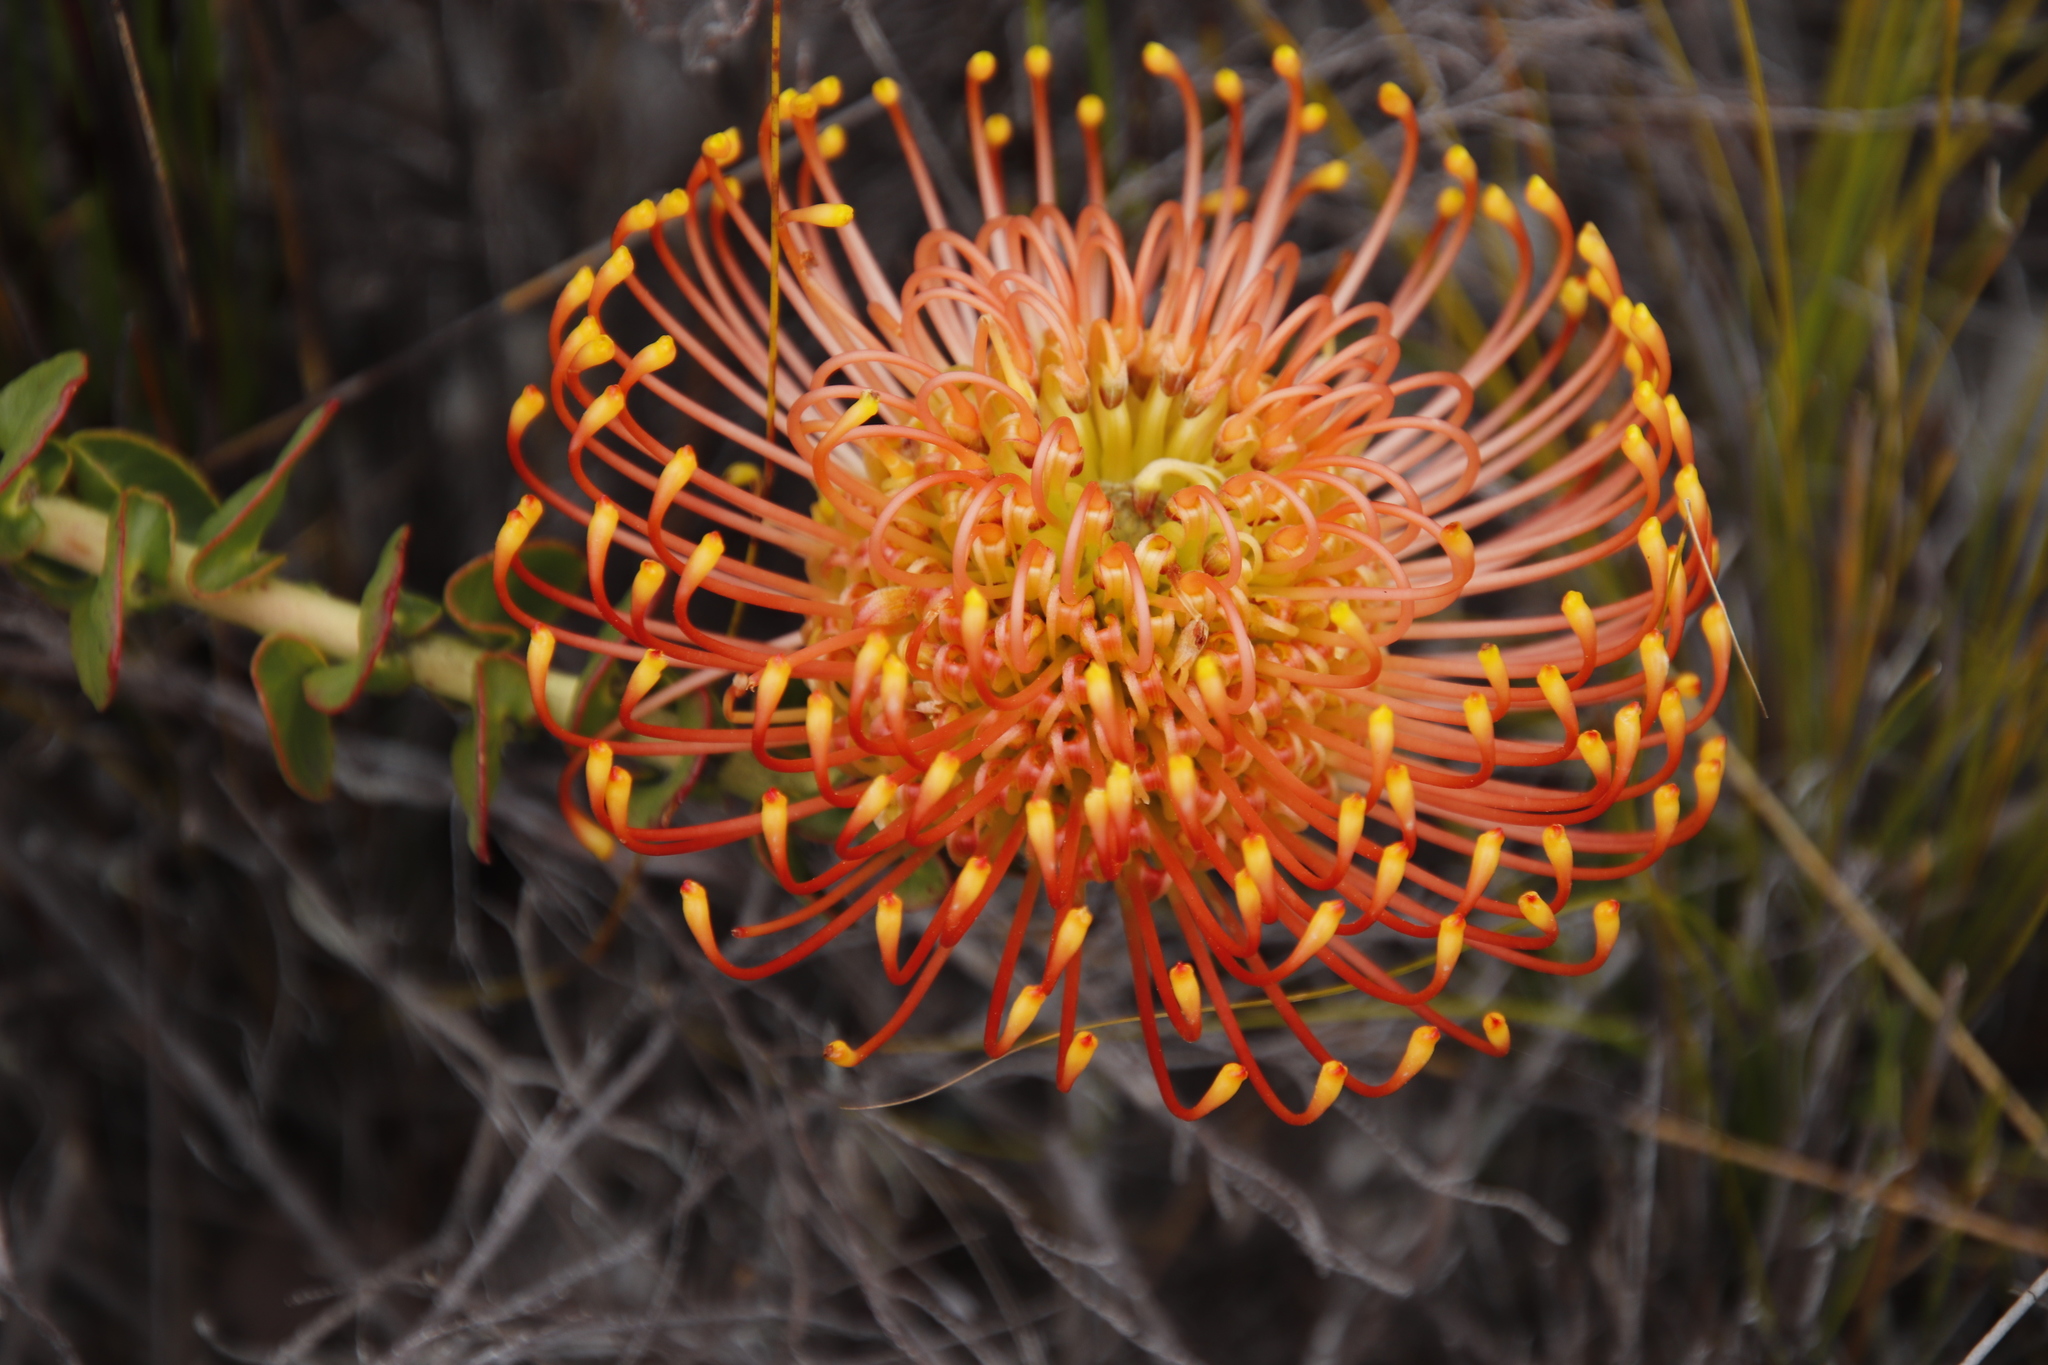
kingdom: Plantae
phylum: Tracheophyta
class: Magnoliopsida
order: Proteales
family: Proteaceae
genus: Leucospermum
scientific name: Leucospermum cordifolium
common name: Red pincushion-protea
